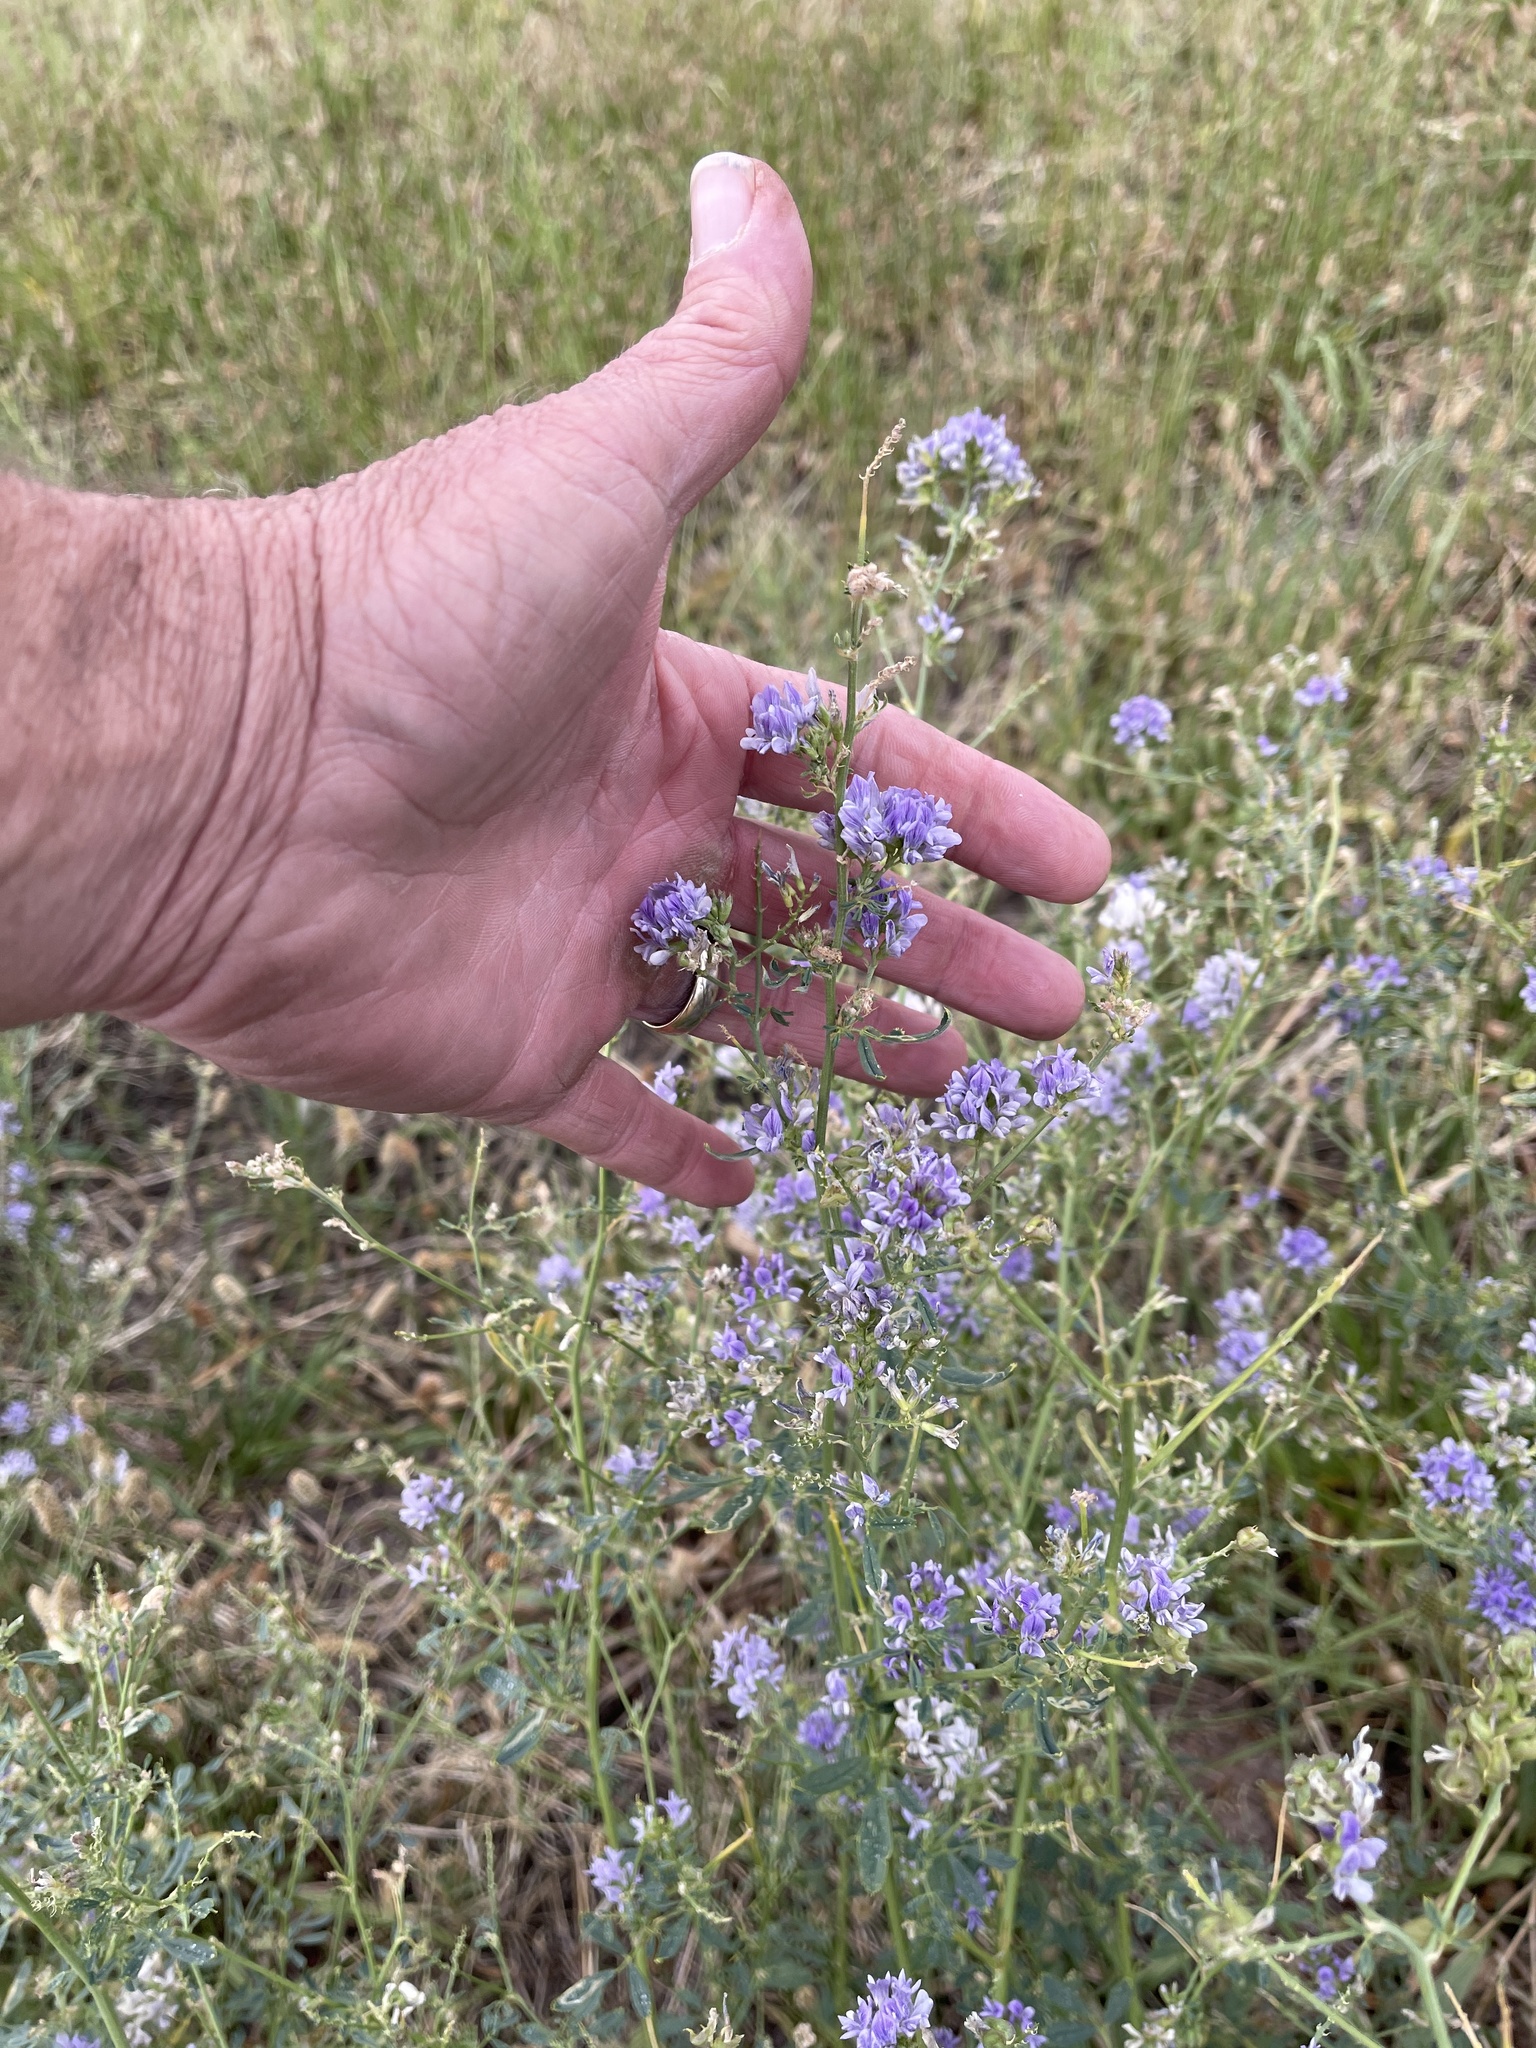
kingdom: Plantae
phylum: Tracheophyta
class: Magnoliopsida
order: Fabales
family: Fabaceae
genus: Medicago
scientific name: Medicago sativa
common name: Alfalfa
